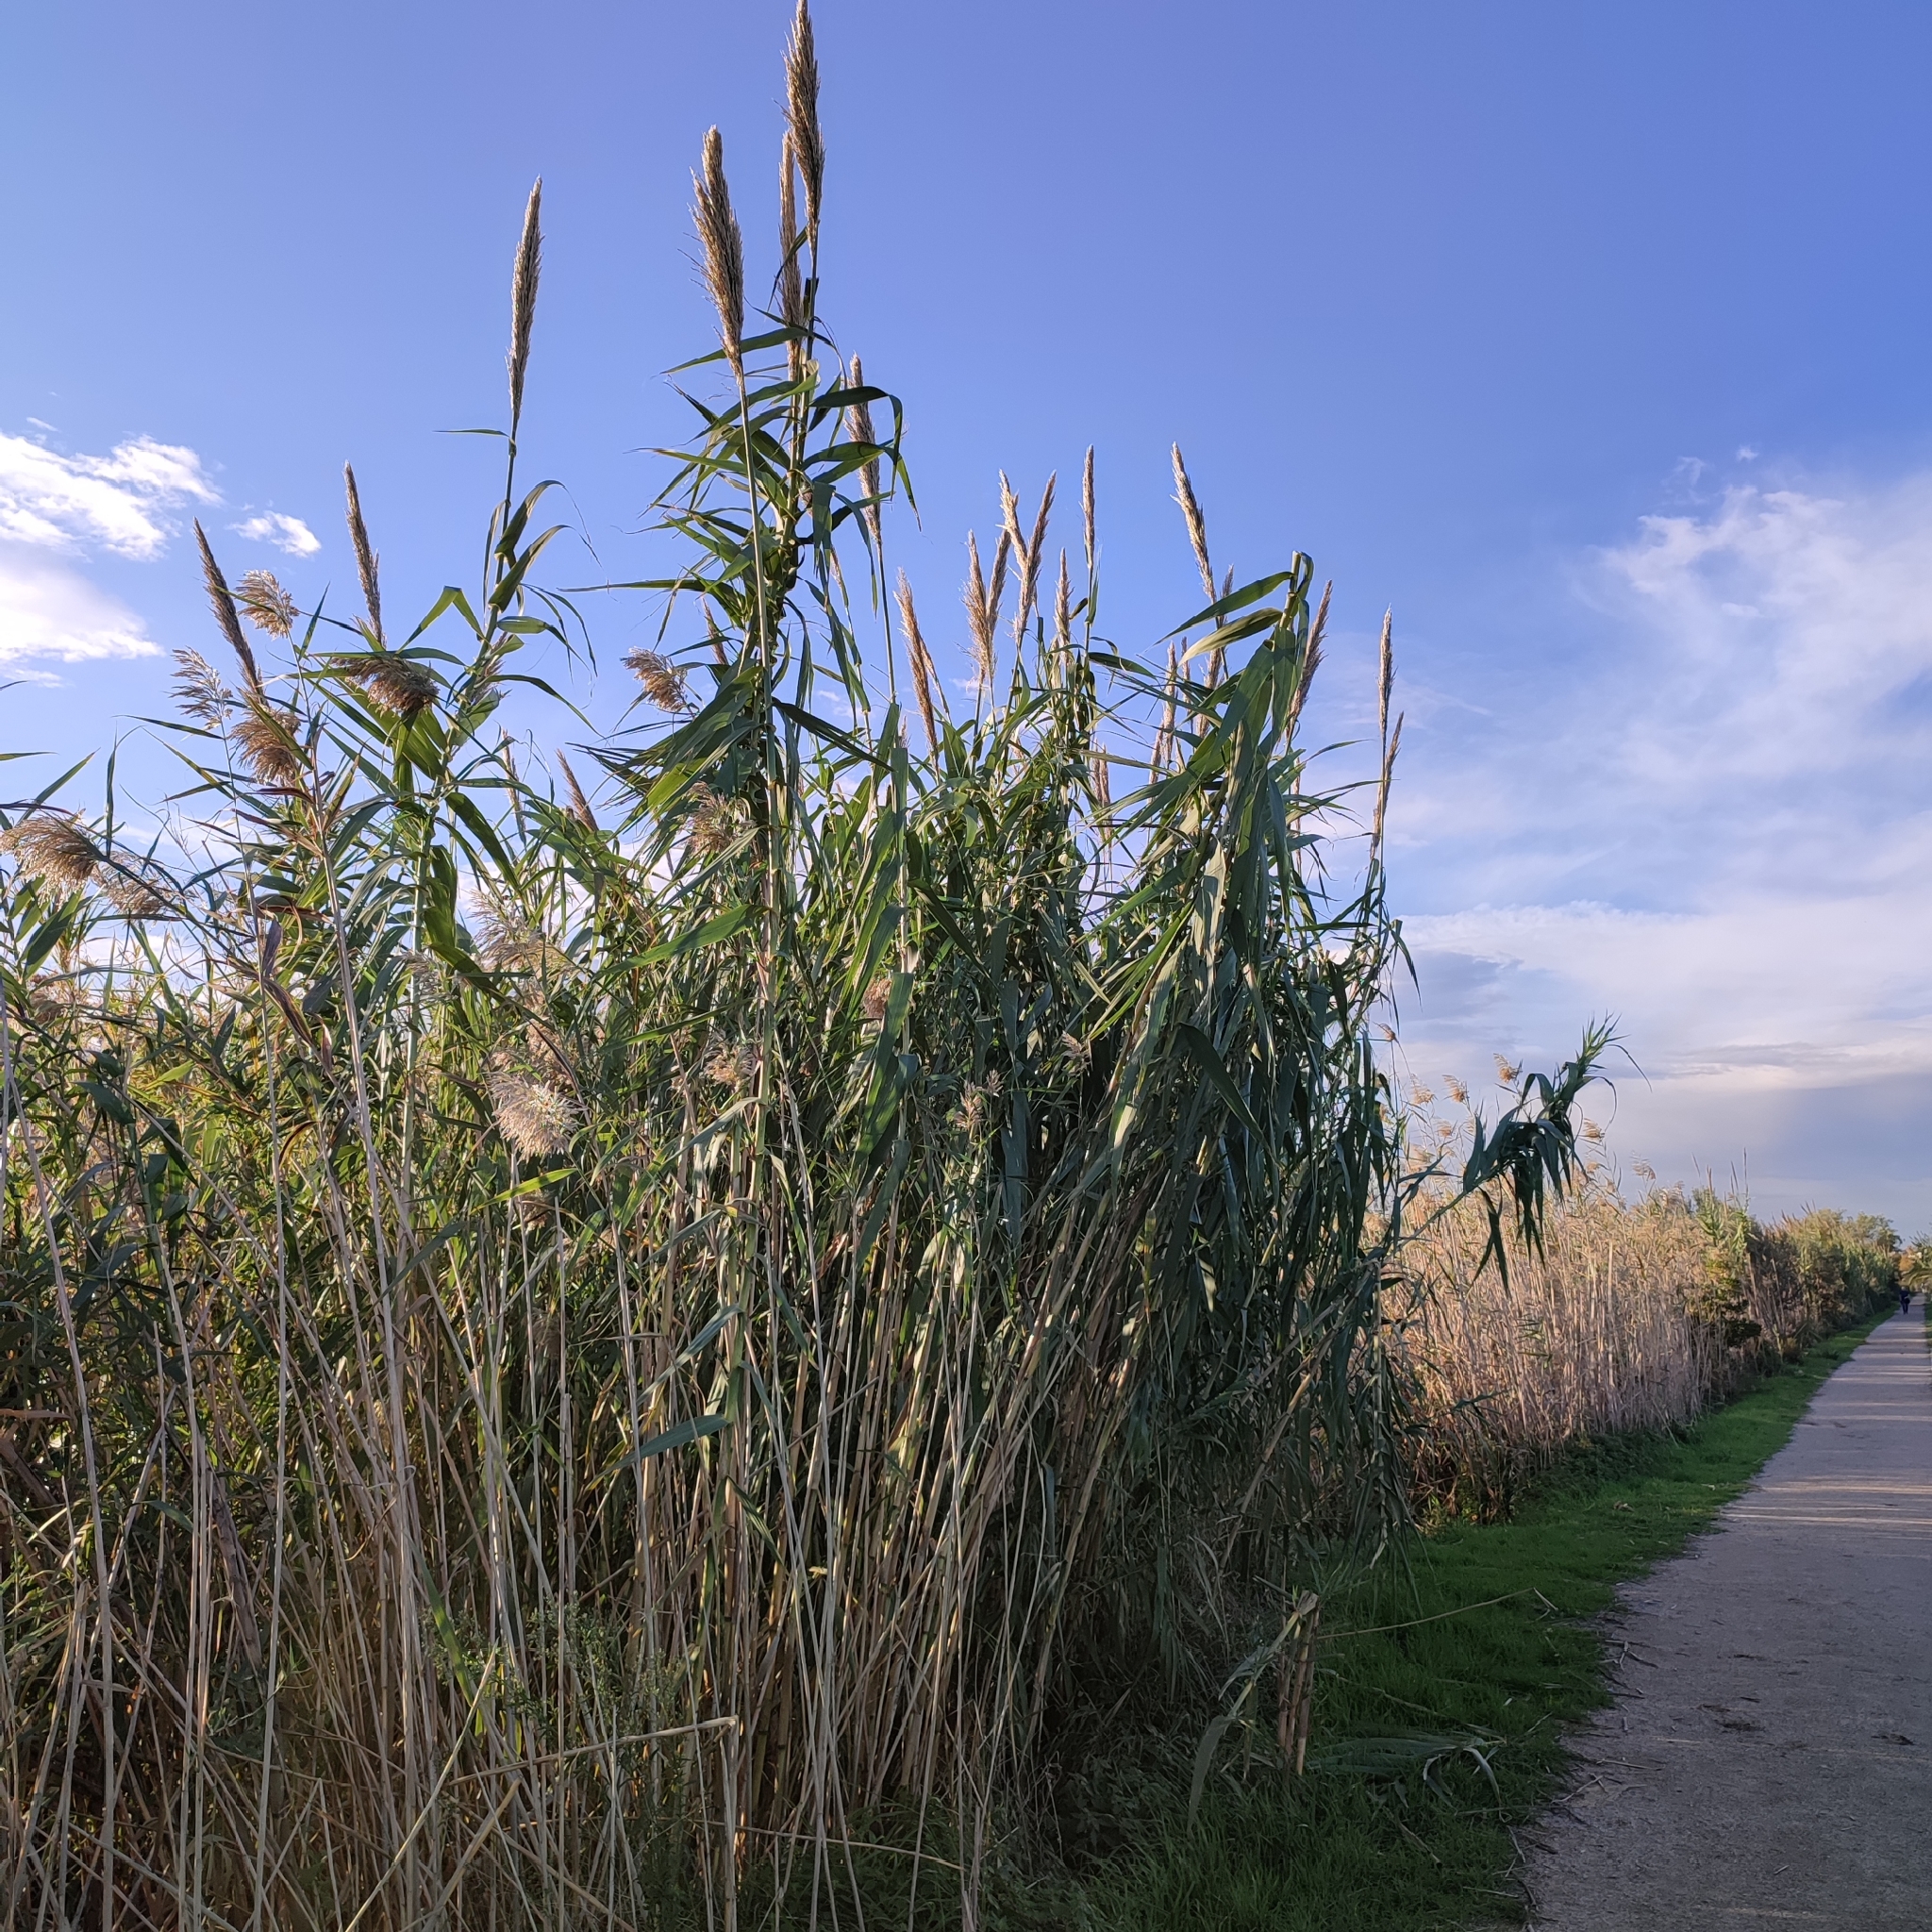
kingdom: Plantae
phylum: Tracheophyta
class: Liliopsida
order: Poales
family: Poaceae
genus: Arundo
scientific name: Arundo donax
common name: Giant reed
